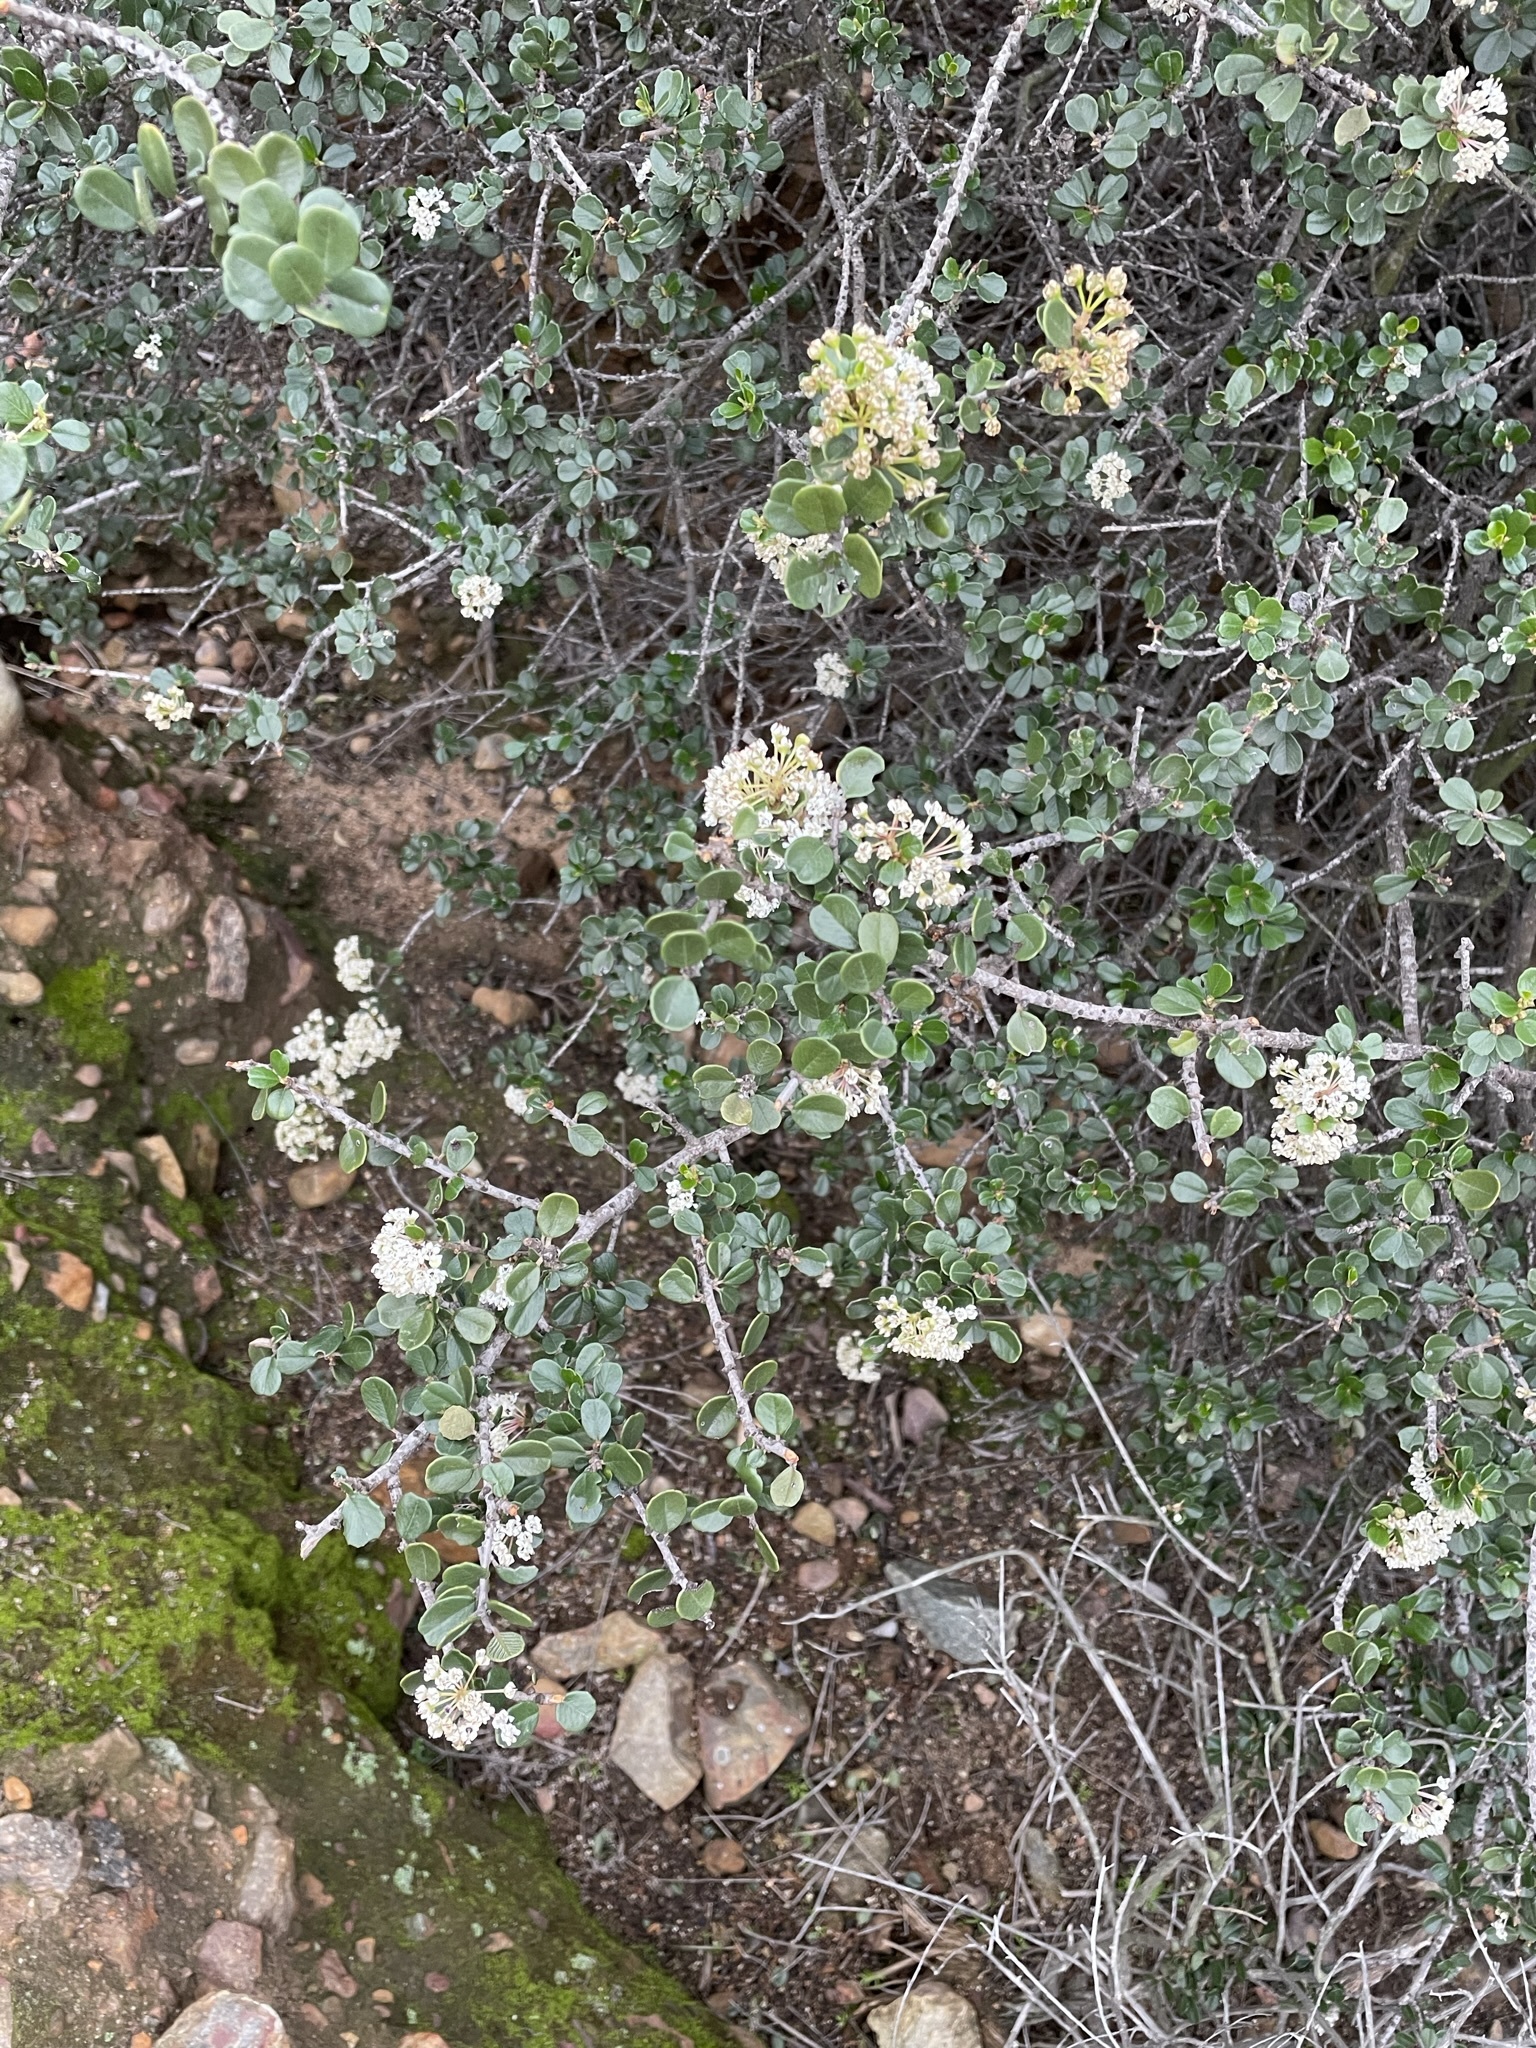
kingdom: Plantae
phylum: Tracheophyta
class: Magnoliopsida
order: Rosales
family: Rhamnaceae
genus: Ceanothus
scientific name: Ceanothus verrucosus
